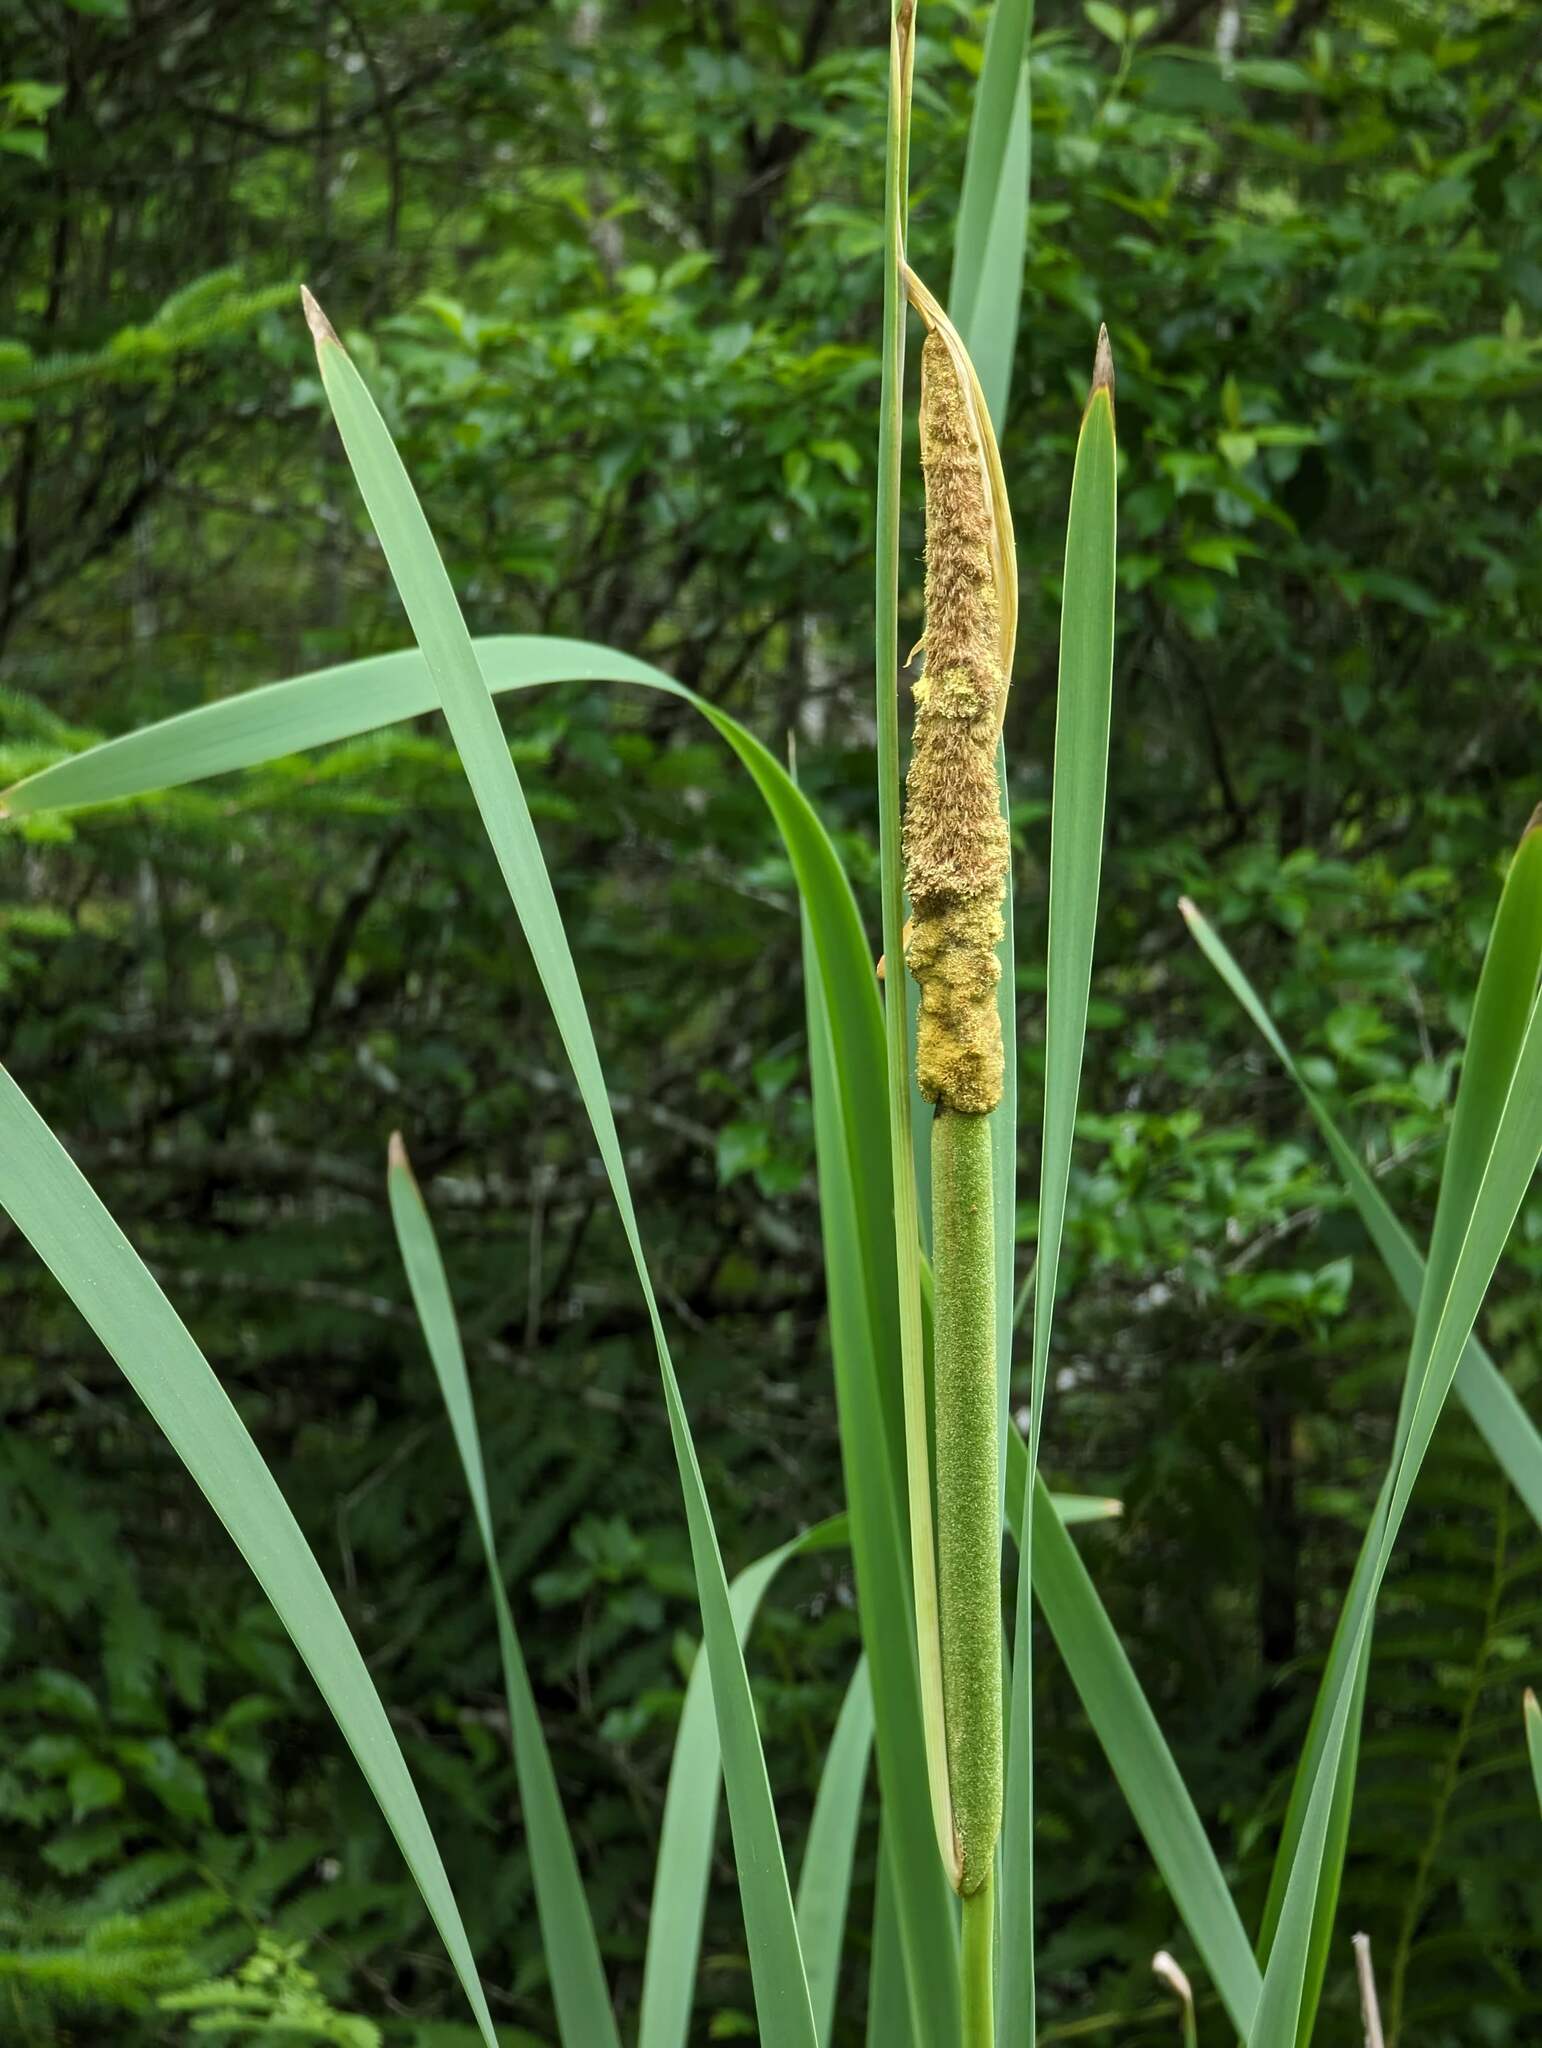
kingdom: Plantae
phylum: Tracheophyta
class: Liliopsida
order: Poales
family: Typhaceae
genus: Typha
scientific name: Typha latifolia
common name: Broadleaf cattail
